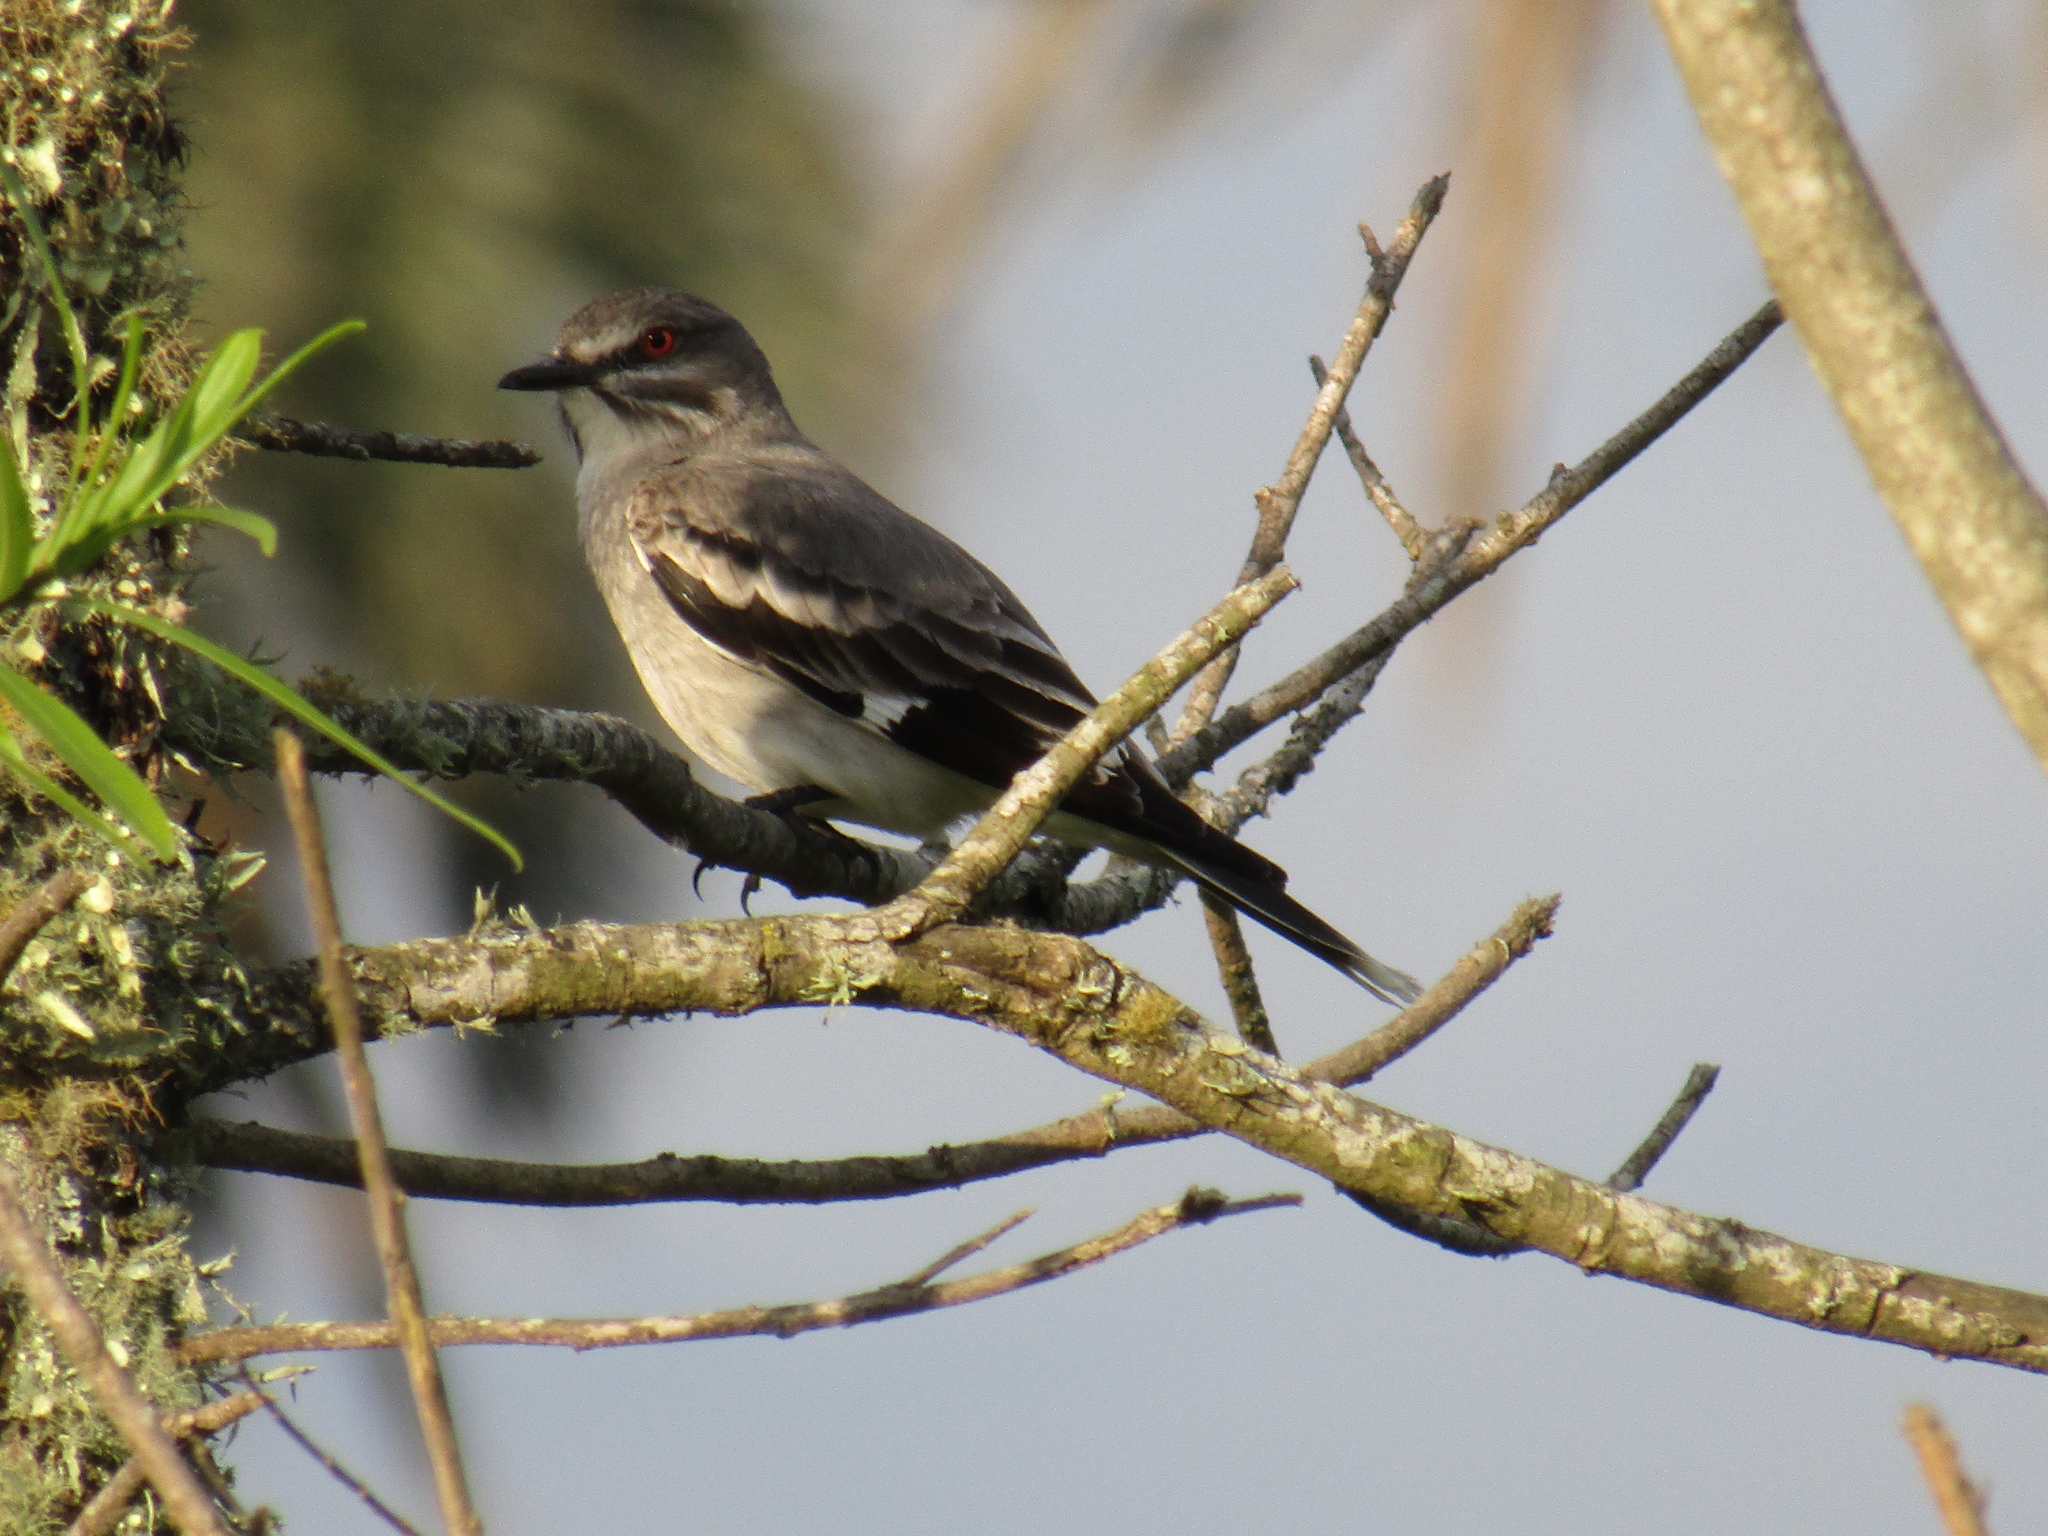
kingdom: Animalia
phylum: Chordata
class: Aves
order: Passeriformes
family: Tyrannidae
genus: Xolmis
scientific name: Xolmis cinereus
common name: Grey monjita
